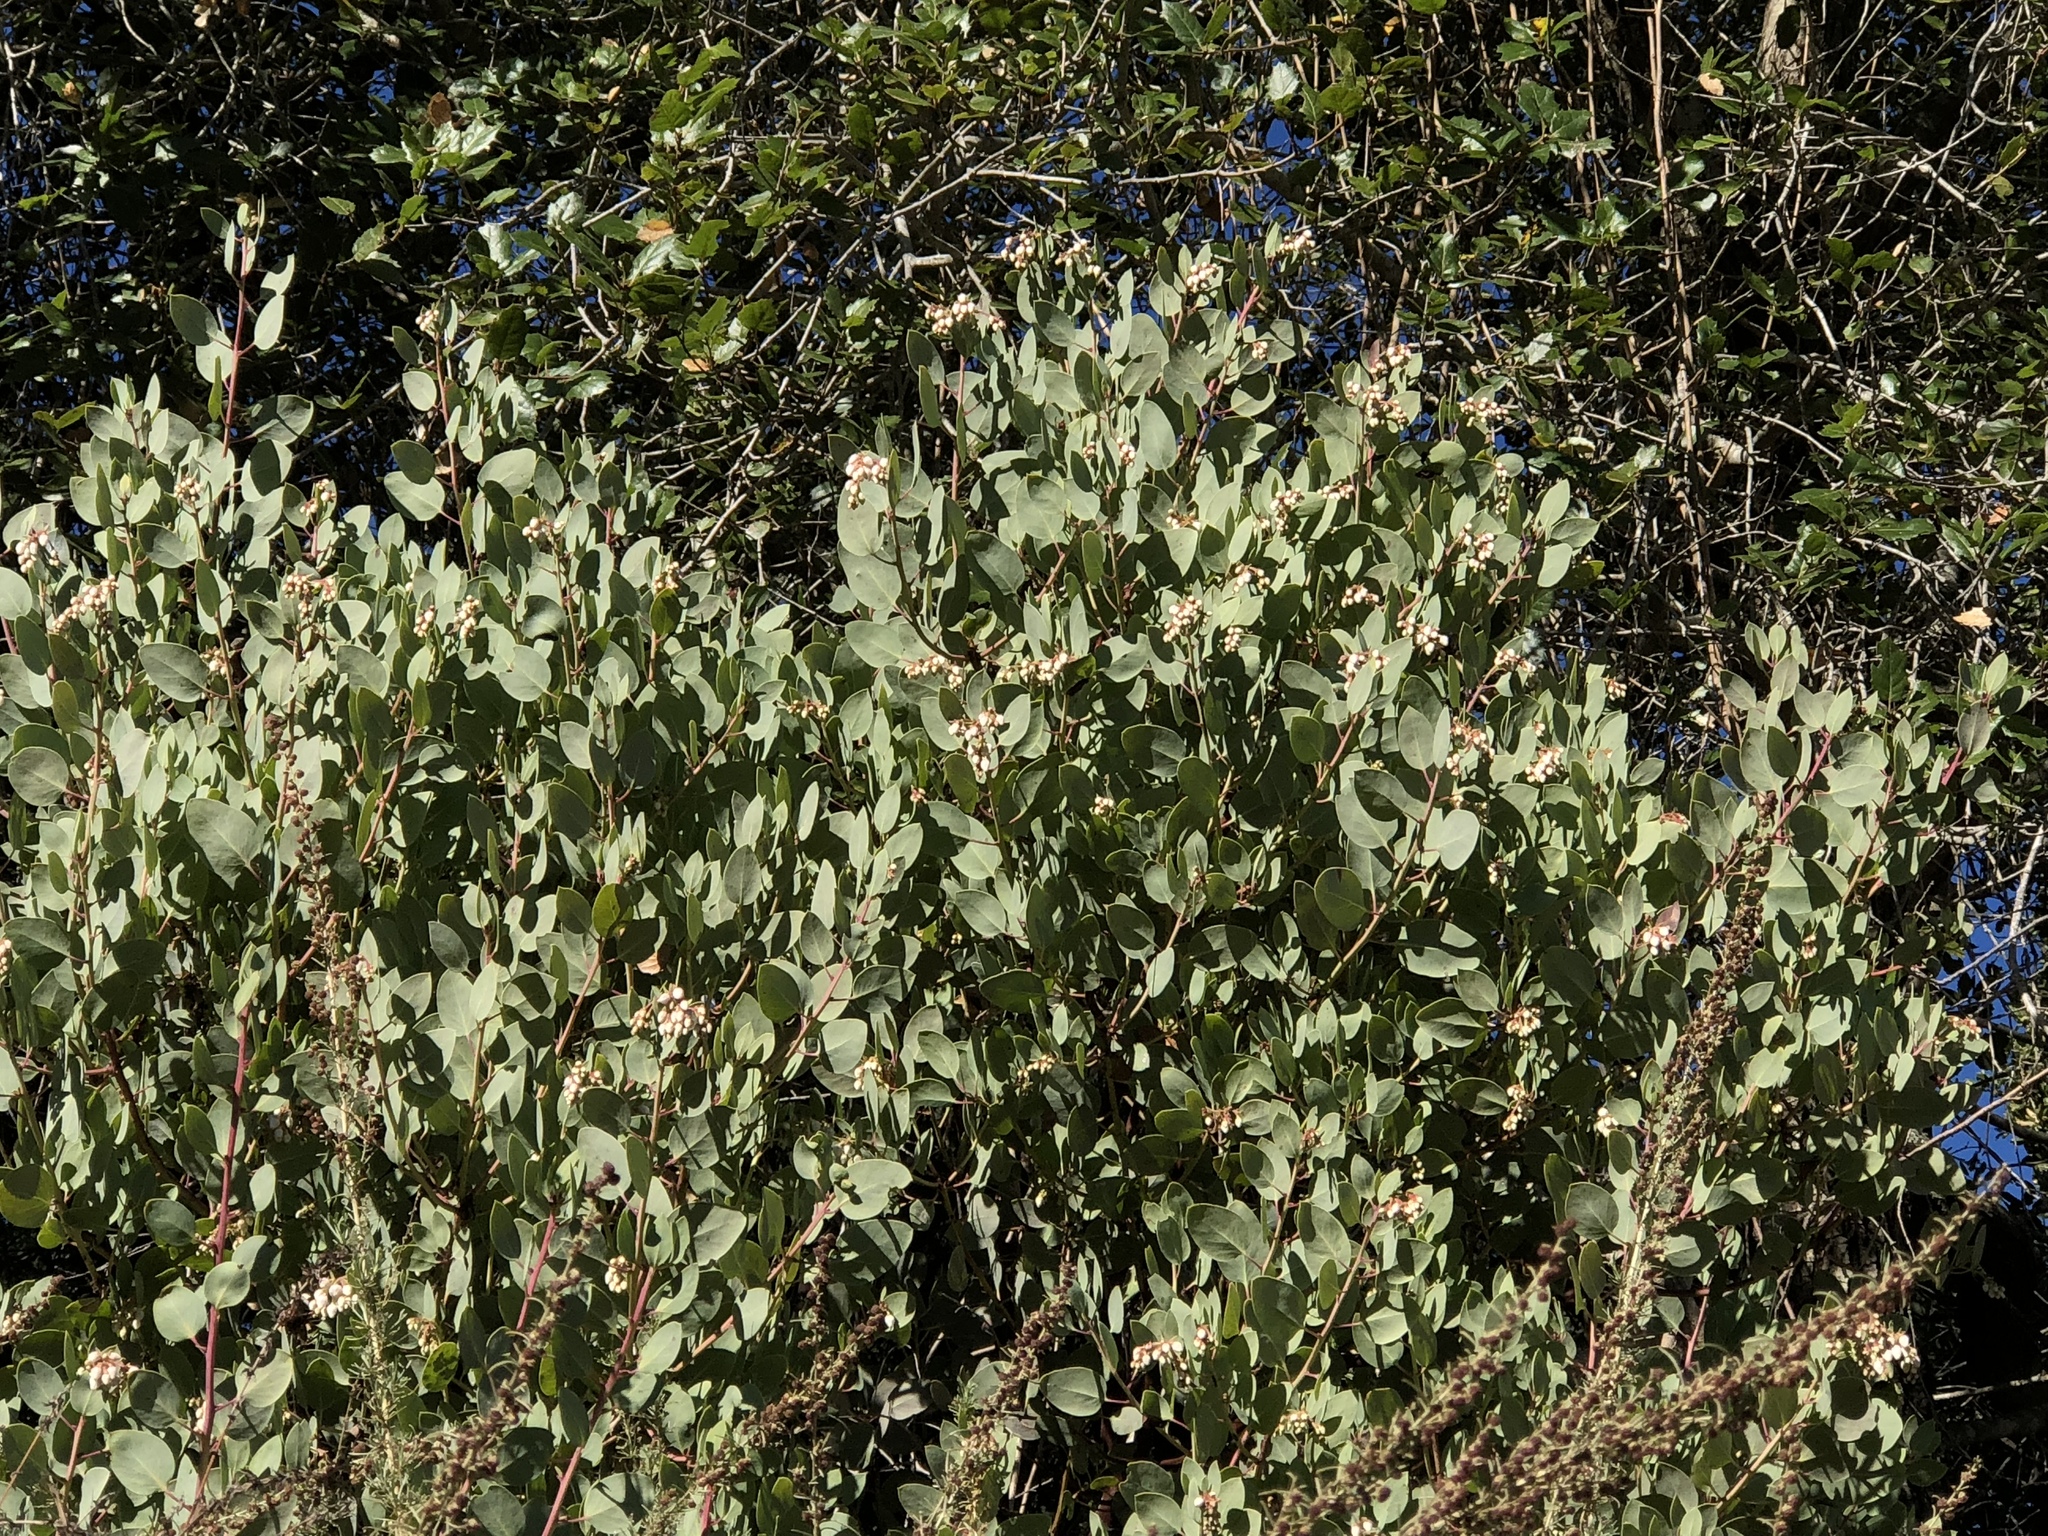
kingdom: Plantae
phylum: Tracheophyta
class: Magnoliopsida
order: Ericales
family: Ericaceae
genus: Arctostaphylos
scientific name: Arctostaphylos glauca
